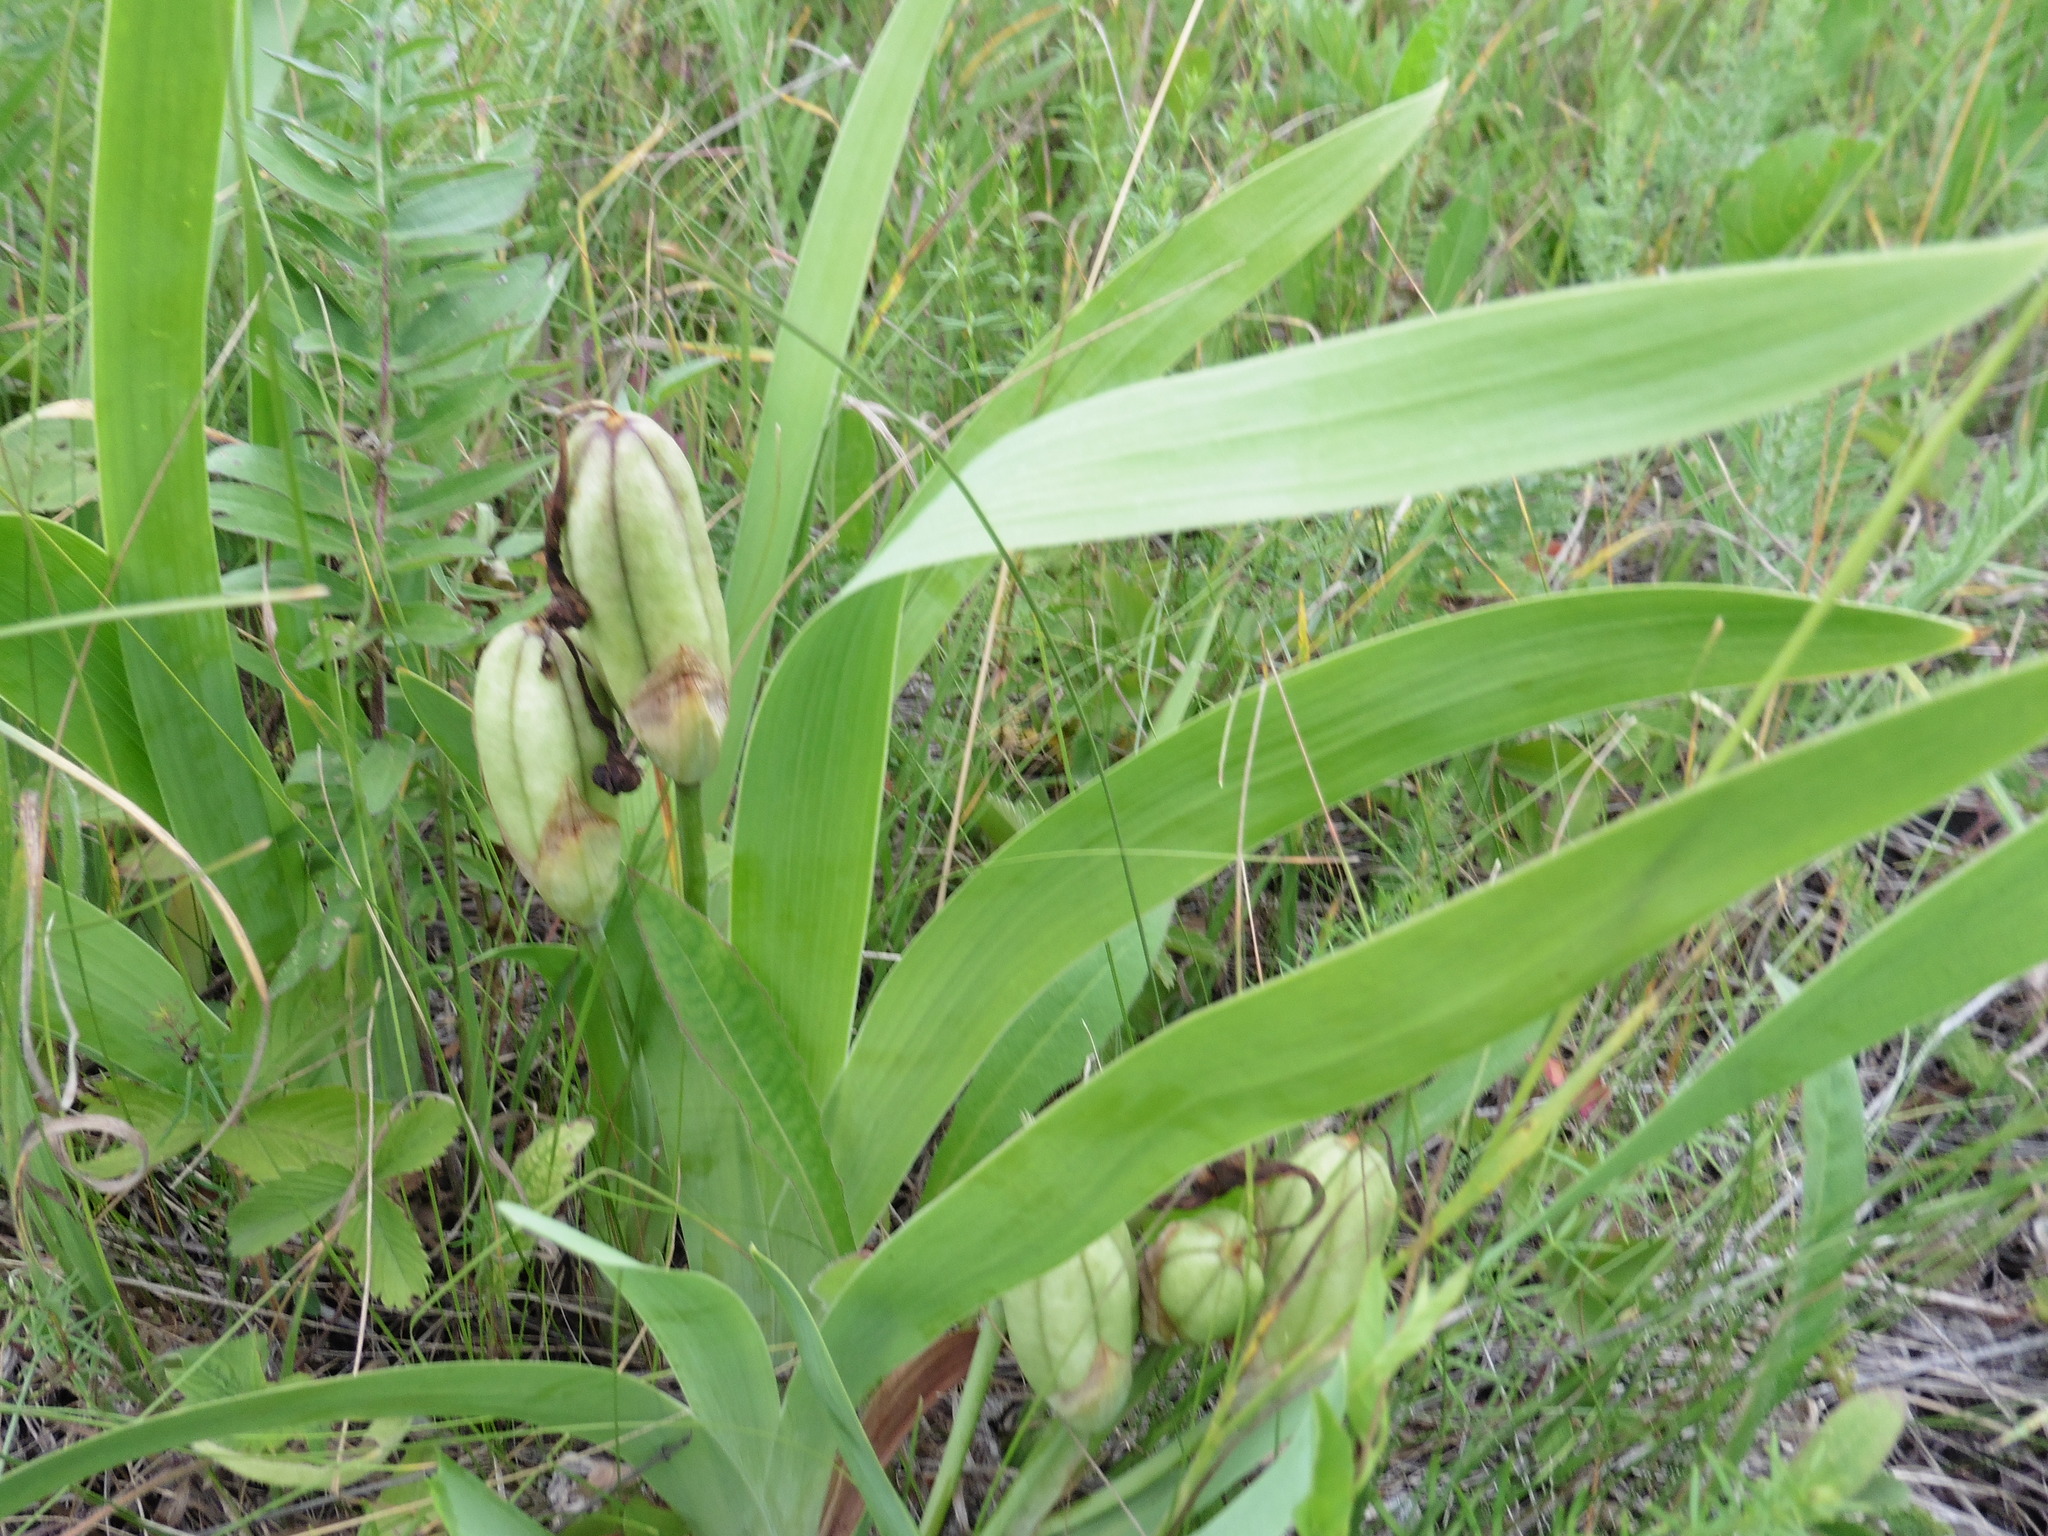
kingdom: Plantae
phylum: Tracheophyta
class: Liliopsida
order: Asparagales
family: Iridaceae
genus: Iris
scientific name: Iris aphylla
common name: Stool iris
